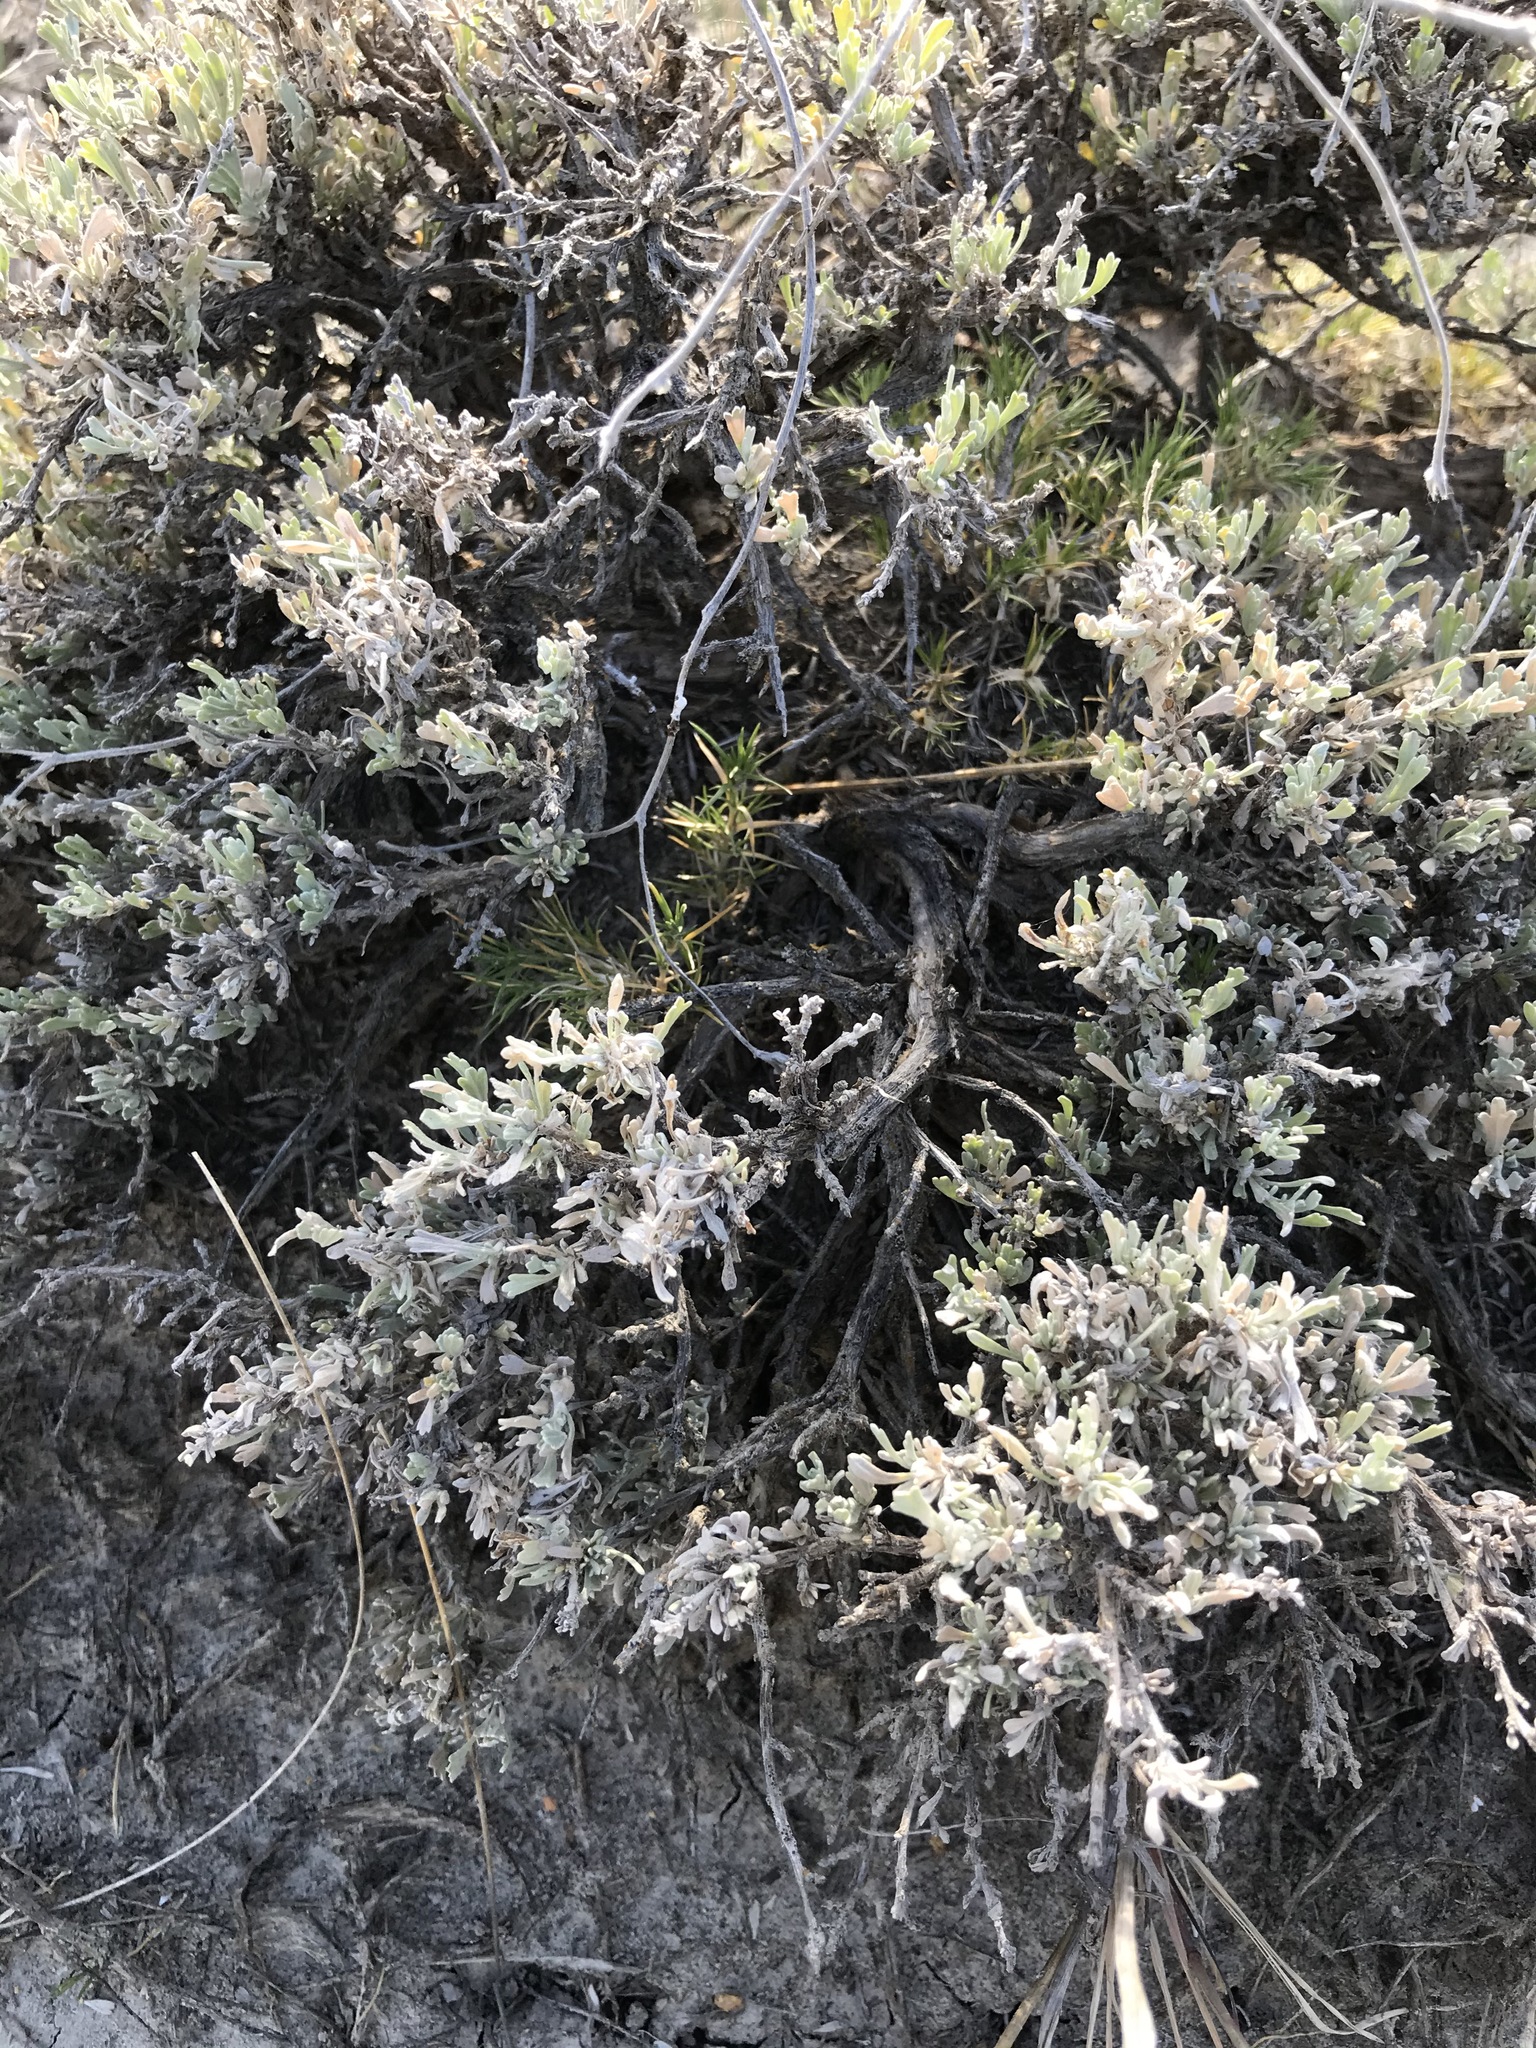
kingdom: Plantae
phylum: Tracheophyta
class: Magnoliopsida
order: Asterales
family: Asteraceae
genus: Artemisia
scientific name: Artemisia tridentata
